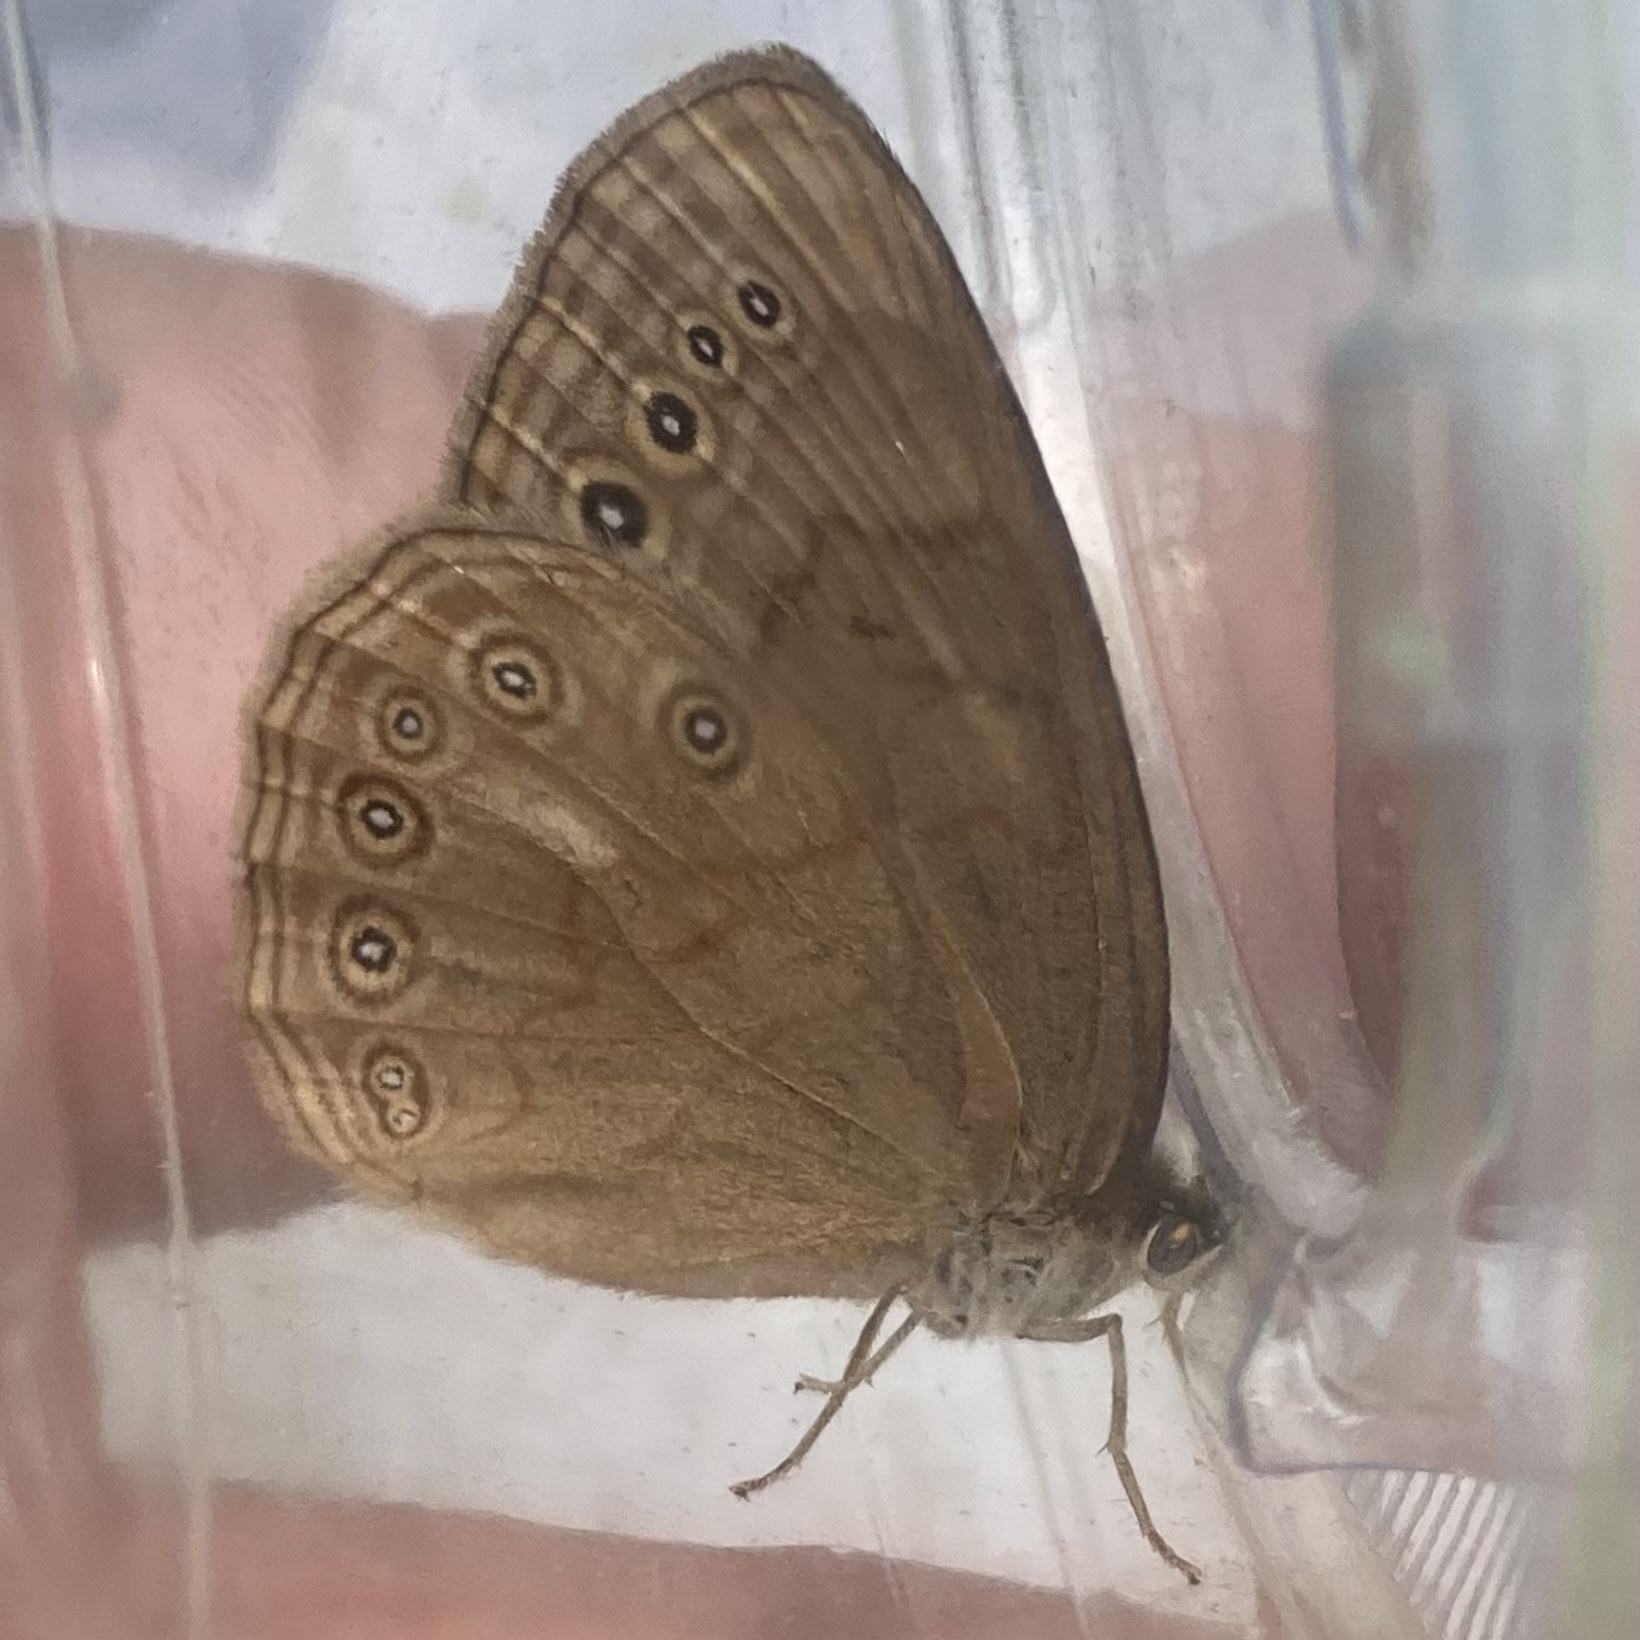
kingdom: Animalia
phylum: Arthropoda
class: Insecta
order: Lepidoptera
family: Nymphalidae
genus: Lethe
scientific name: Lethe eurydice
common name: Eyed brown
